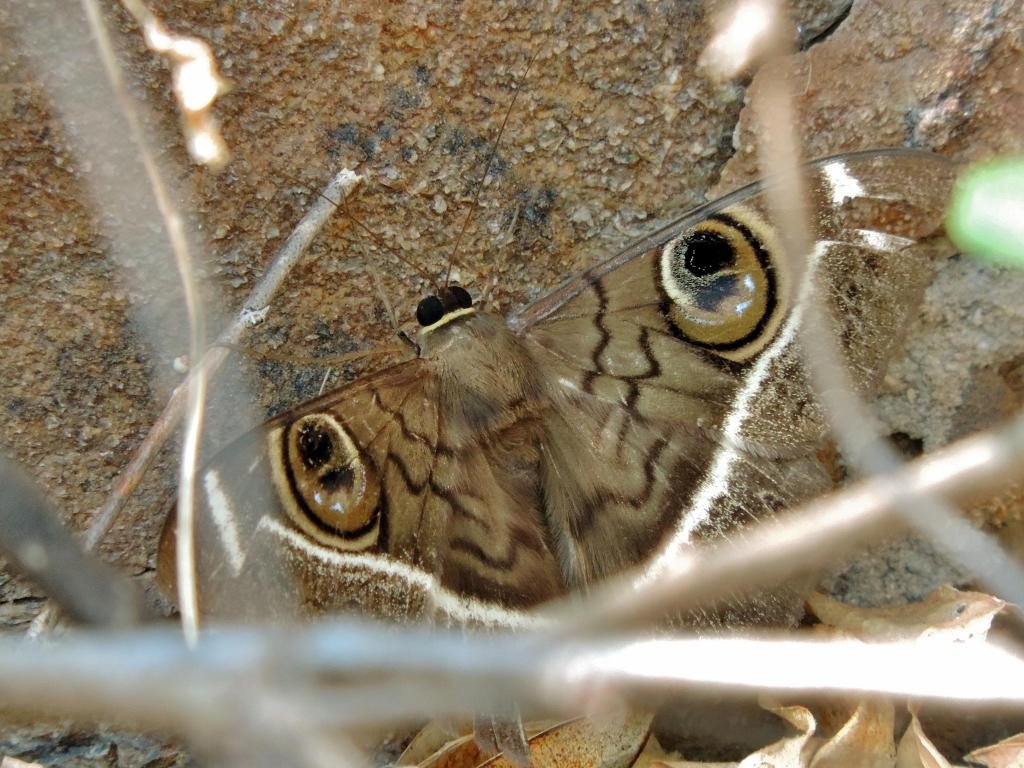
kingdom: Animalia
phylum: Arthropoda
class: Insecta
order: Lepidoptera
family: Erebidae
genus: Cyligramma
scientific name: Cyligramma latona
